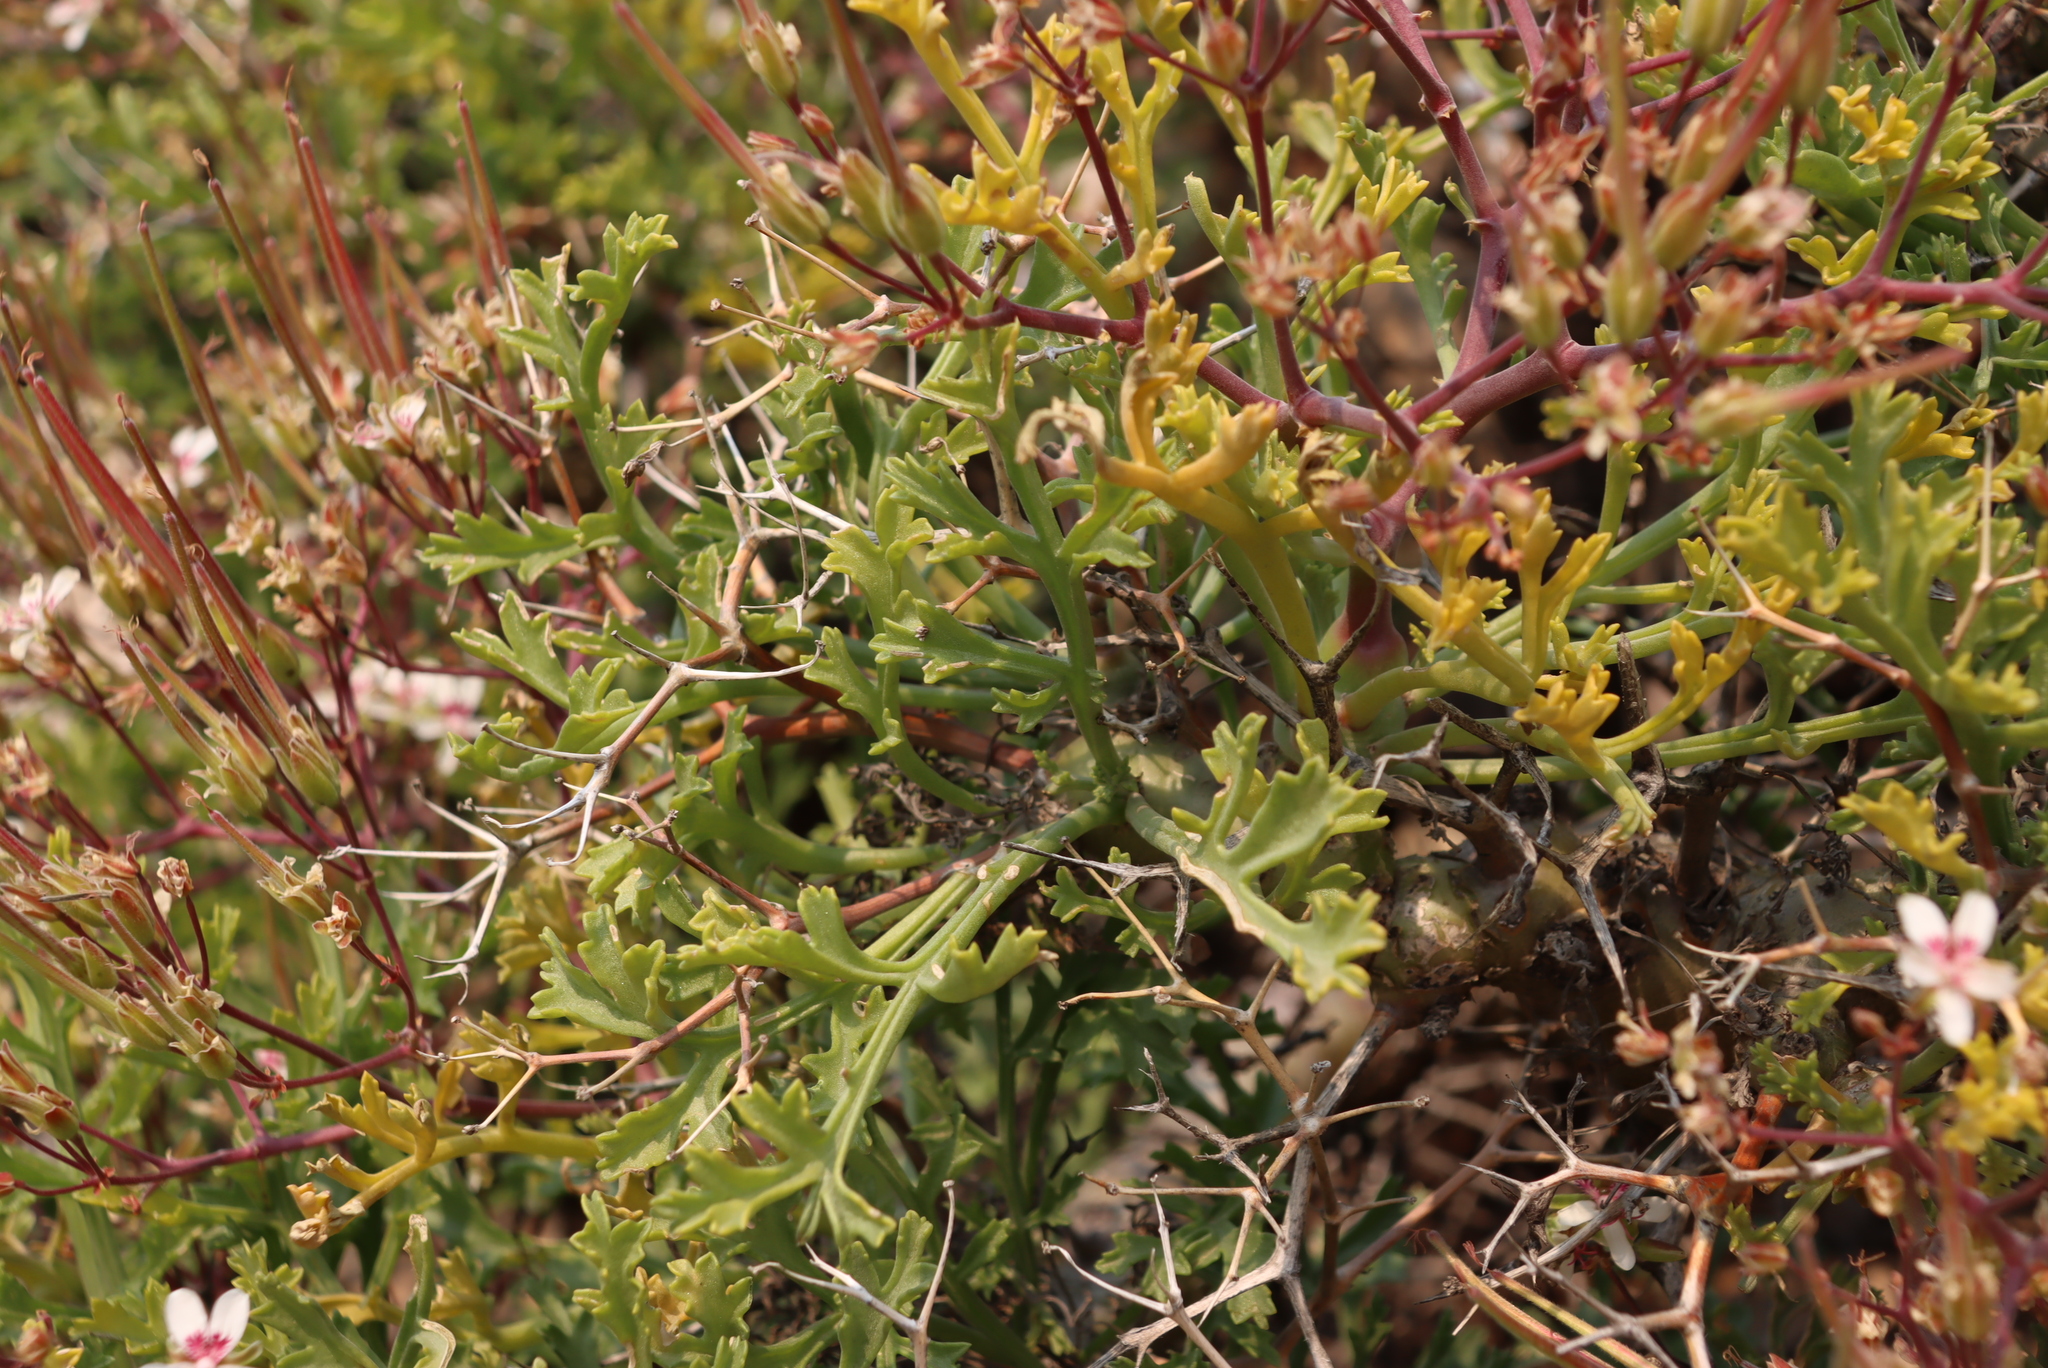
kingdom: Plantae
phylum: Tracheophyta
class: Magnoliopsida
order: Geraniales
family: Geraniaceae
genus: Pelargonium
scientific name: Pelargonium crithmifolium
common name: Samphire-leaf pelargonium
